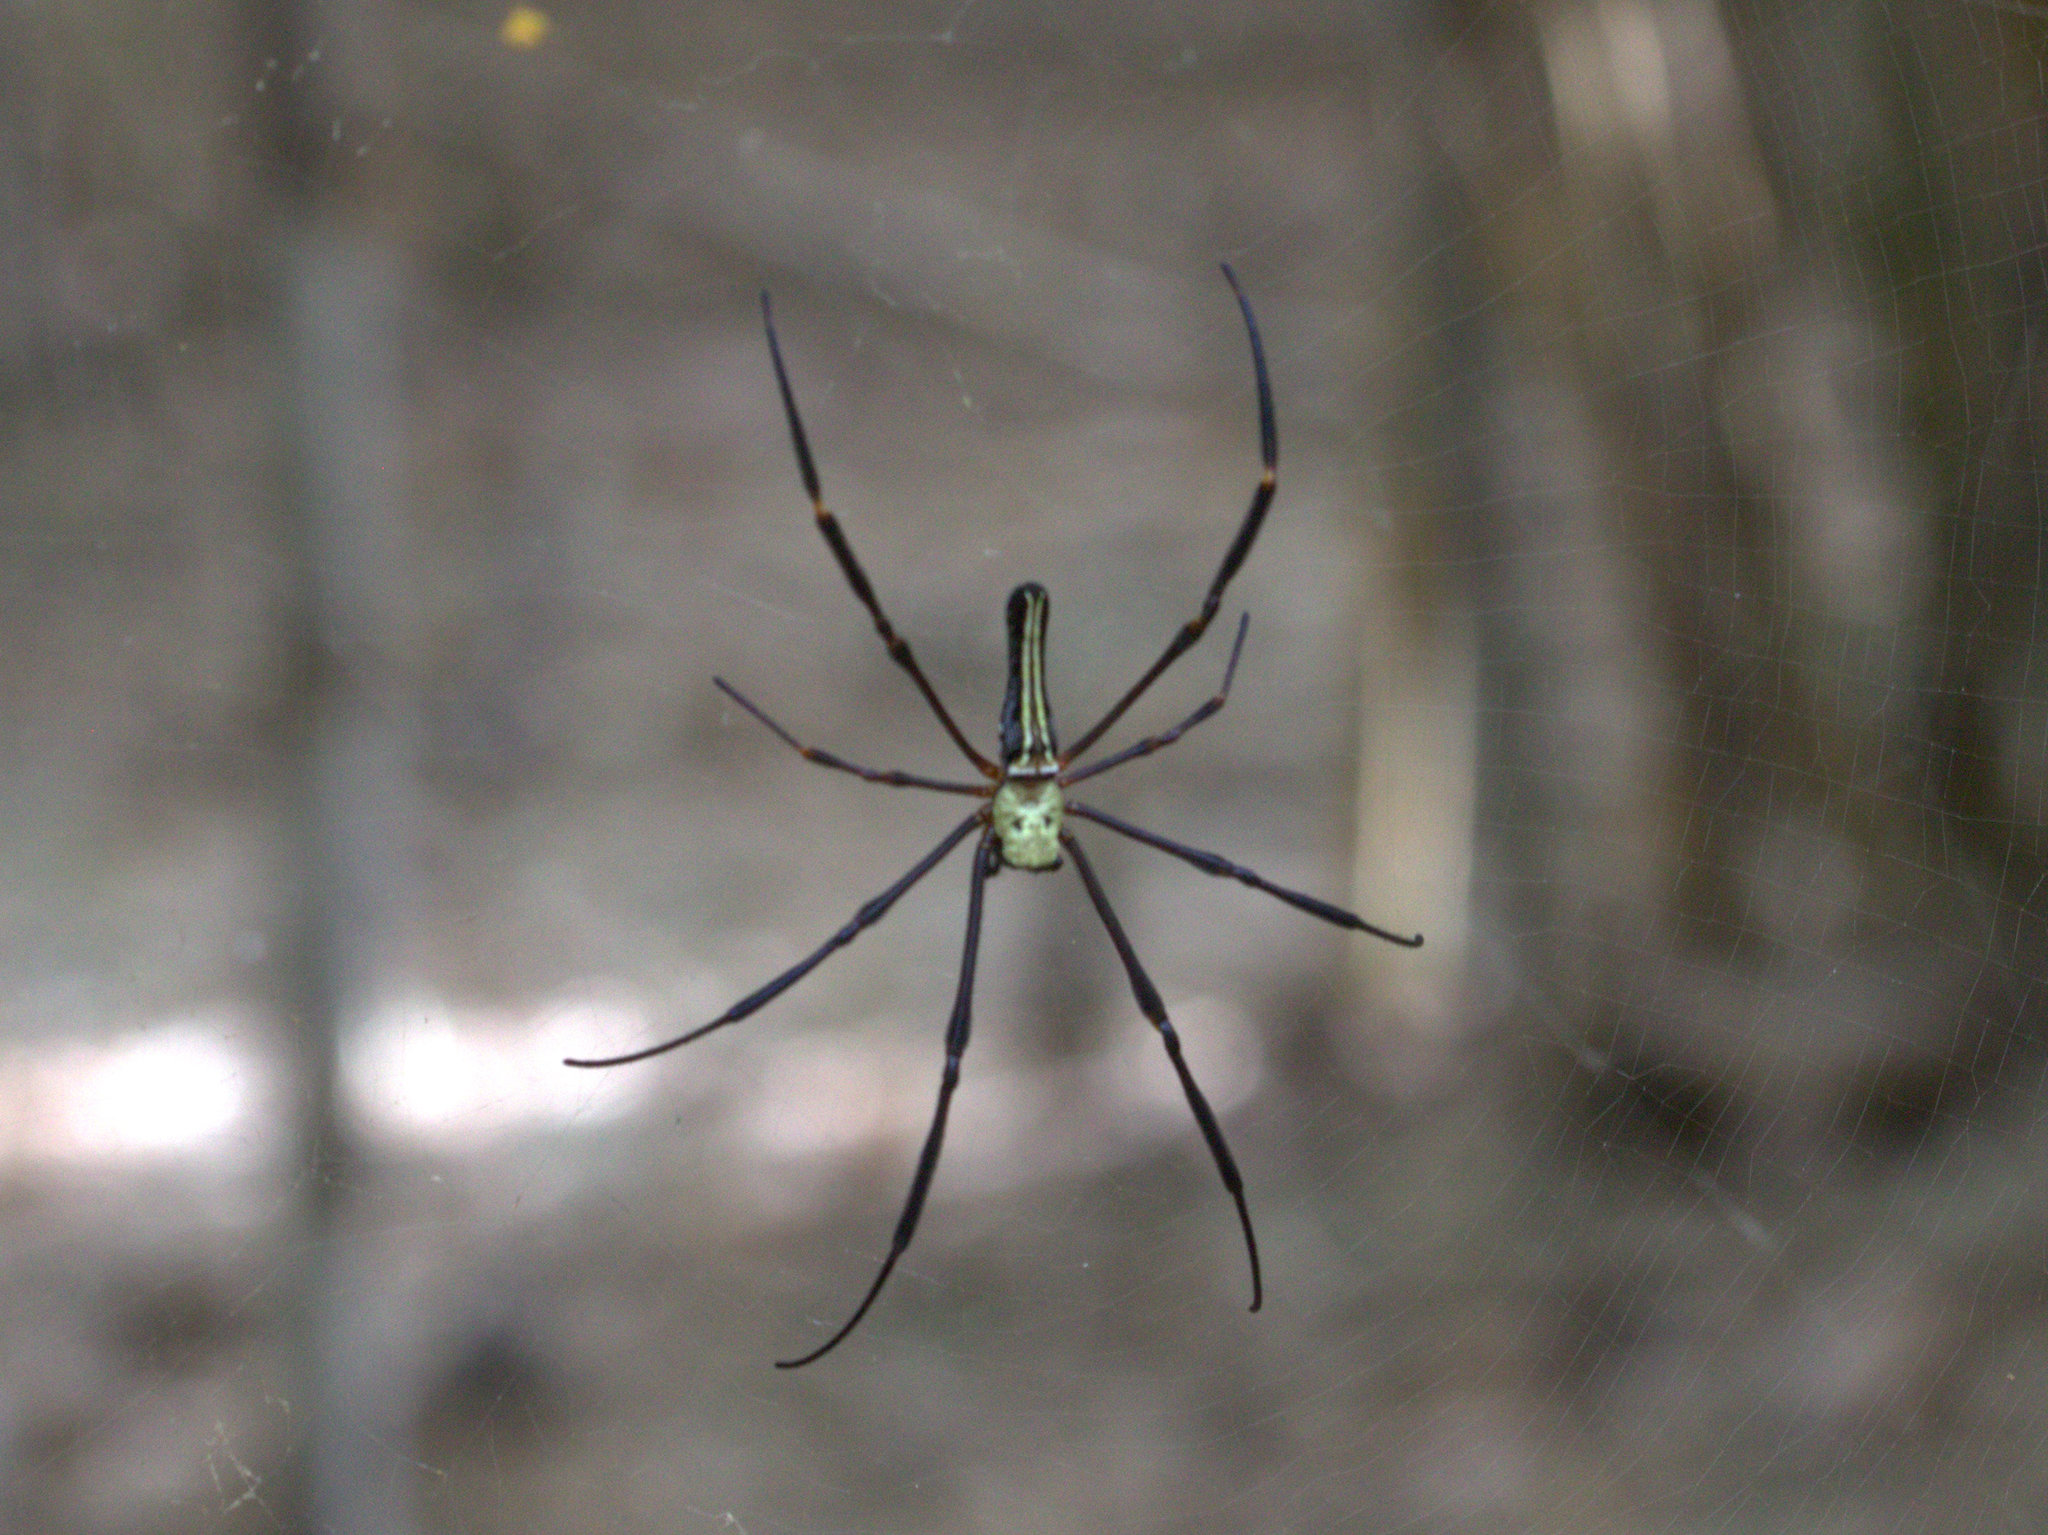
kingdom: Animalia
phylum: Arthropoda
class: Arachnida
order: Araneae
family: Araneidae
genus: Nephila
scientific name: Nephila pilipes
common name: Giant golden orb weaver
